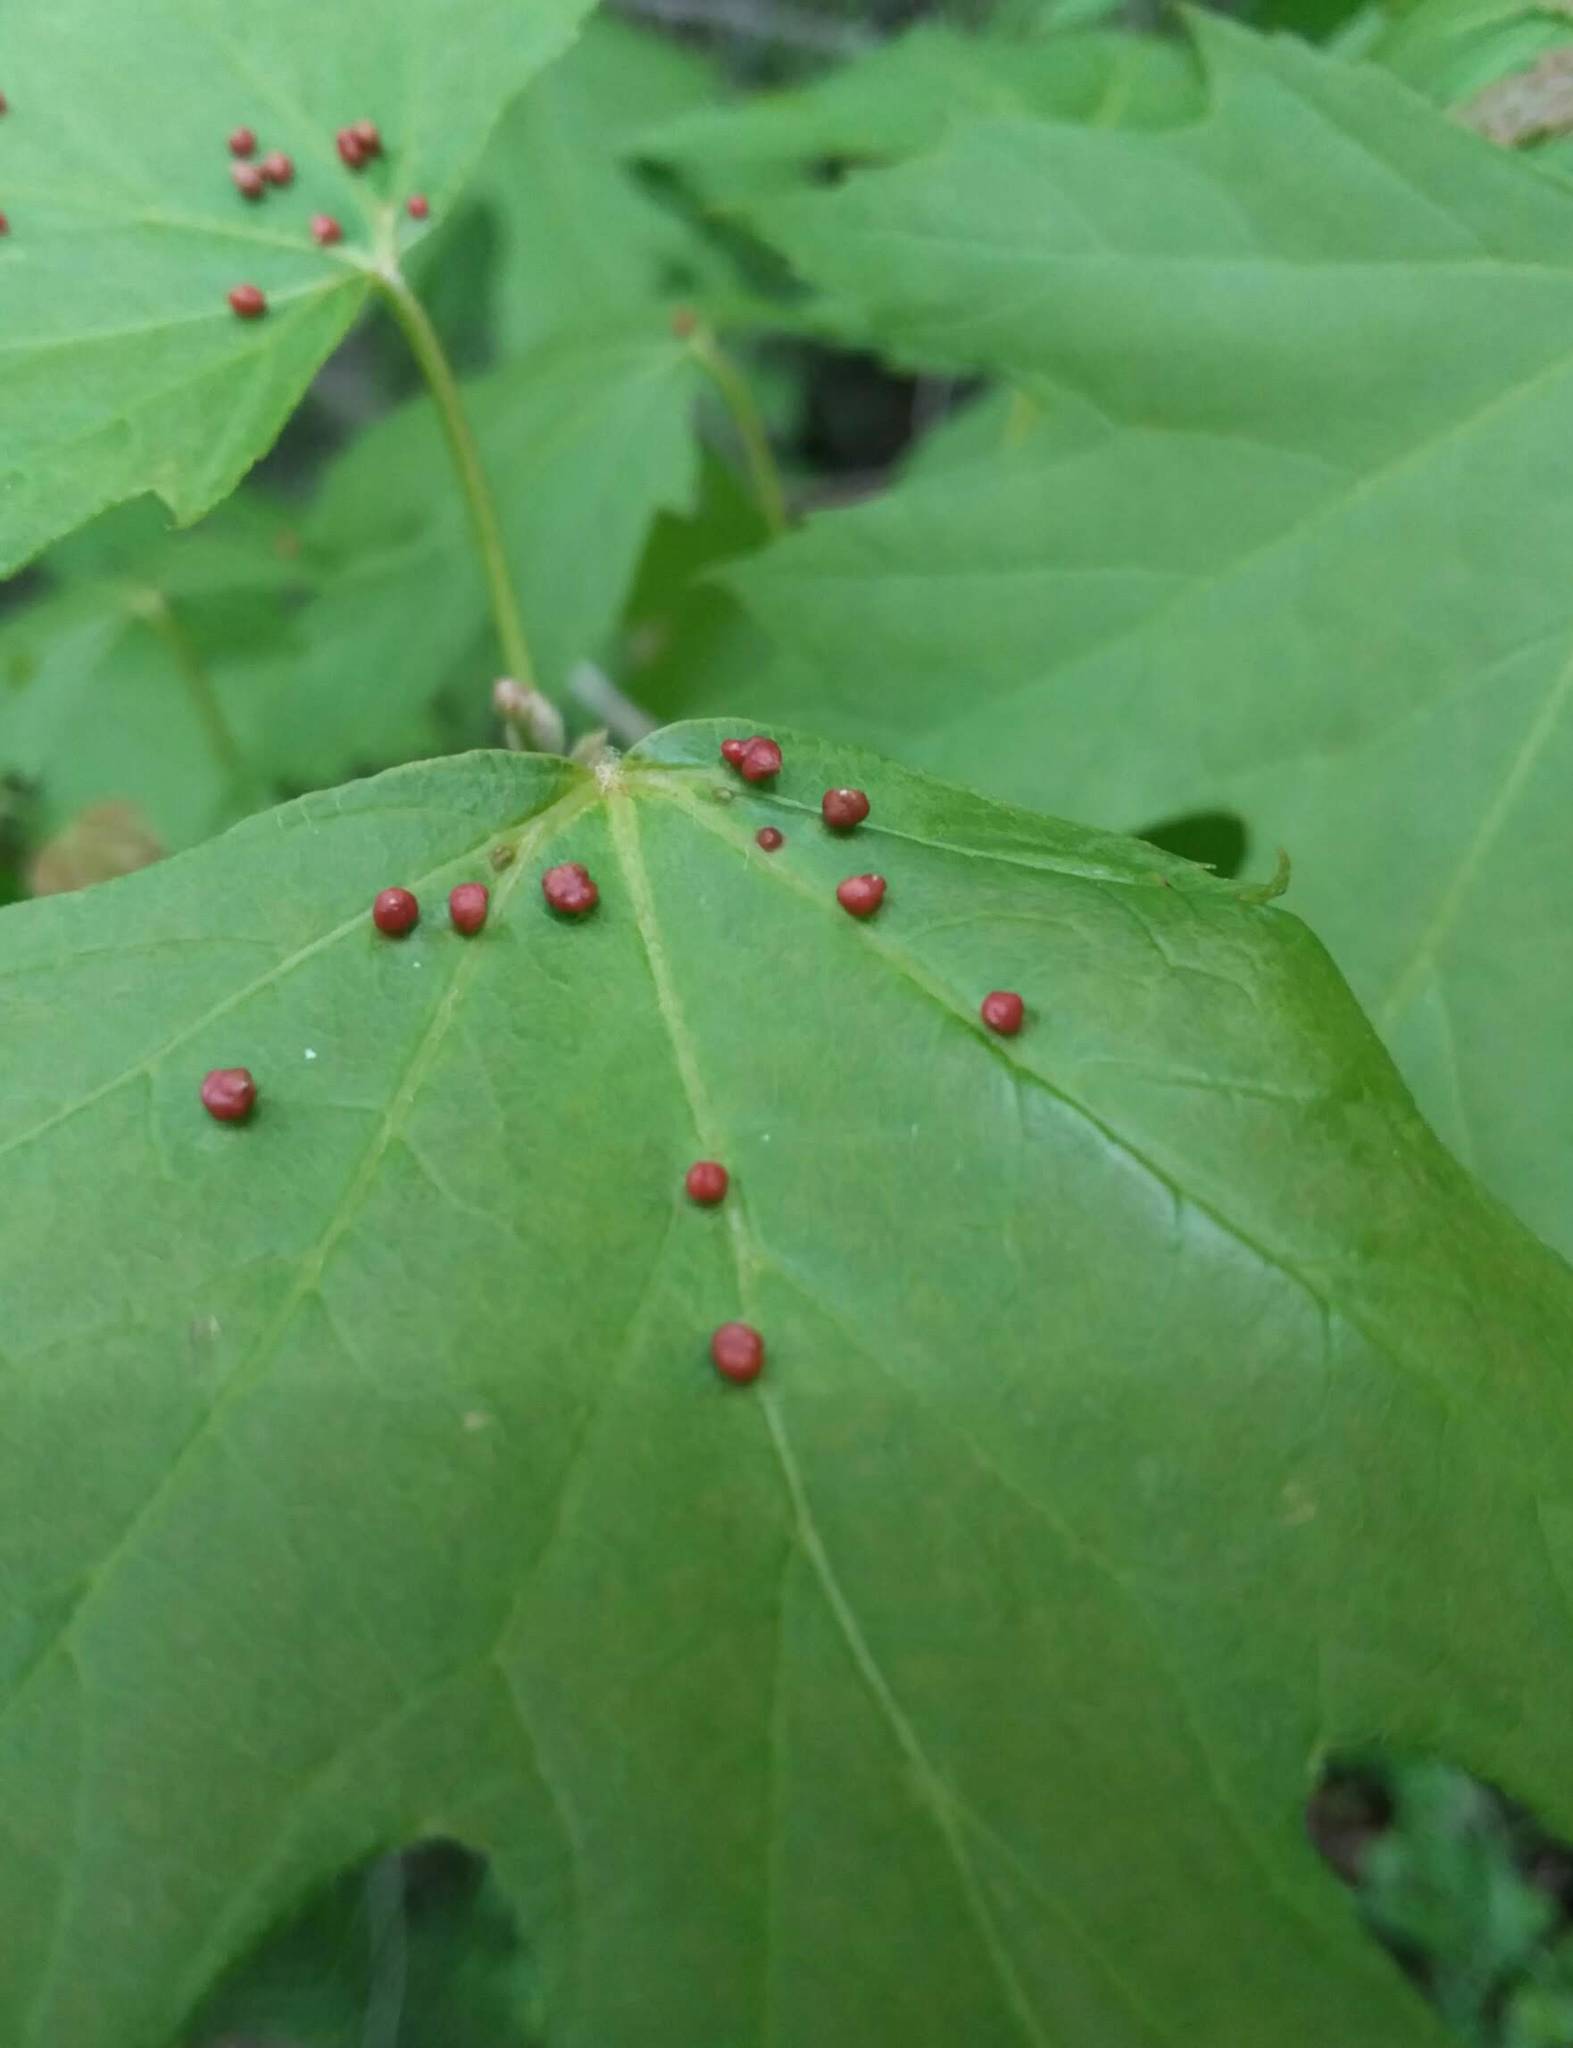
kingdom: Animalia
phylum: Arthropoda
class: Arachnida
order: Trombidiformes
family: Eriophyidae
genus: Vasates
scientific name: Vasates quadripedes
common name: Maple bladder gall mite
